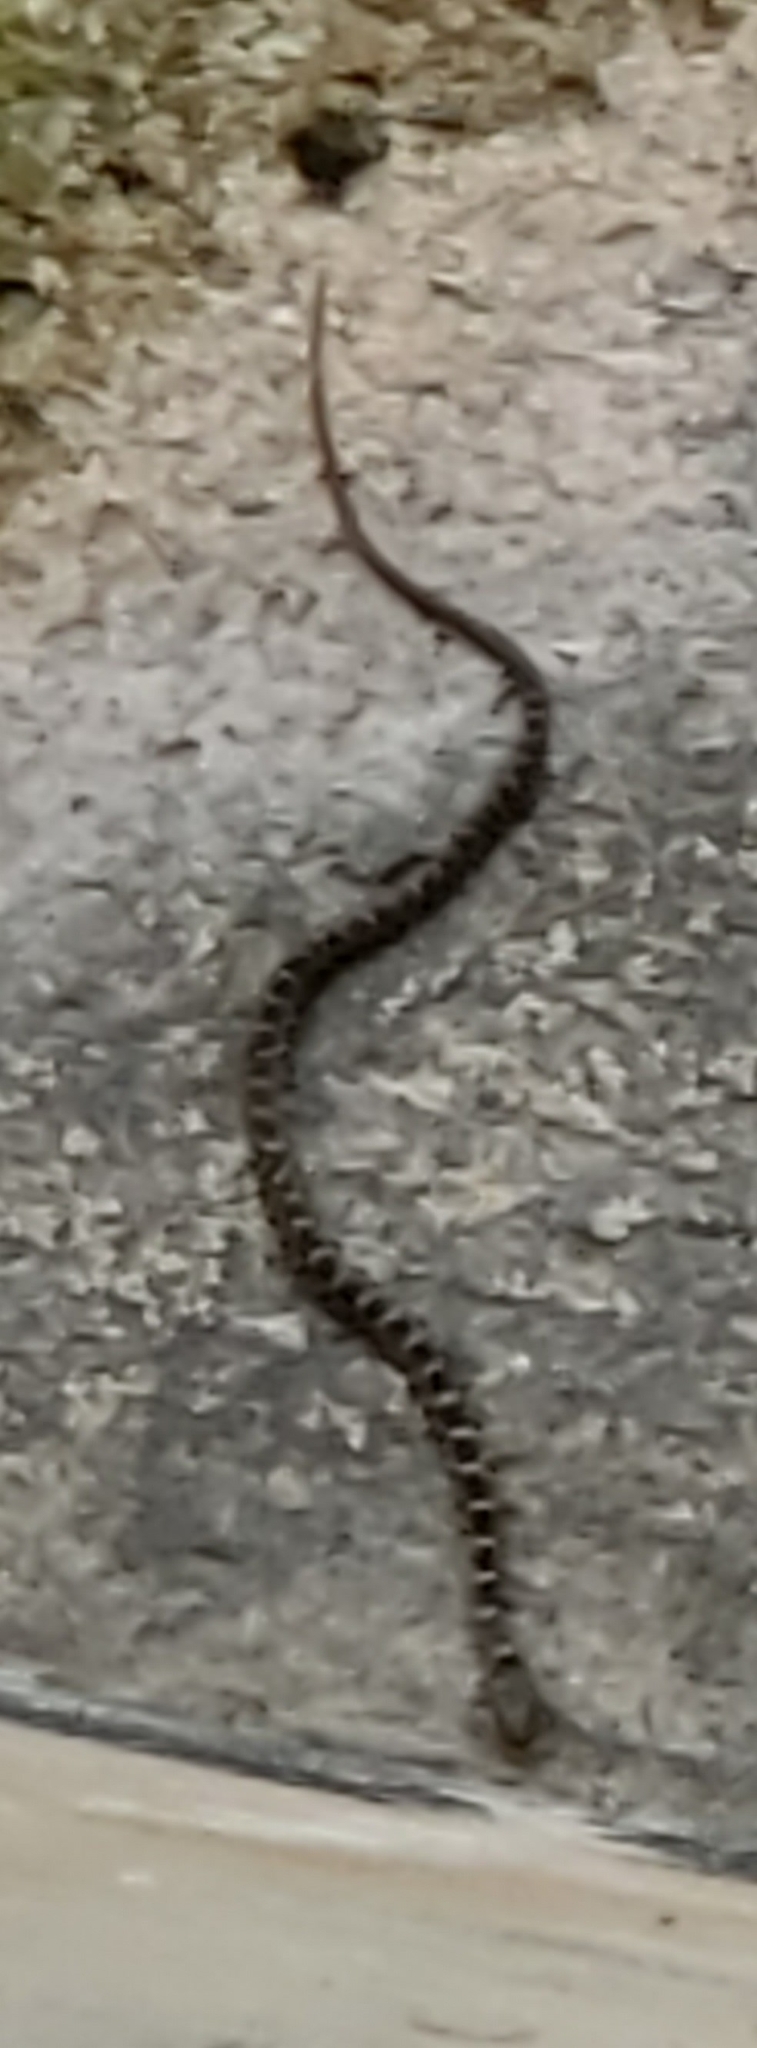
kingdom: Animalia
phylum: Chordata
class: Squamata
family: Colubridae
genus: Nerodia
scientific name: Nerodia erythrogaster
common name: Plainbelly water snake
